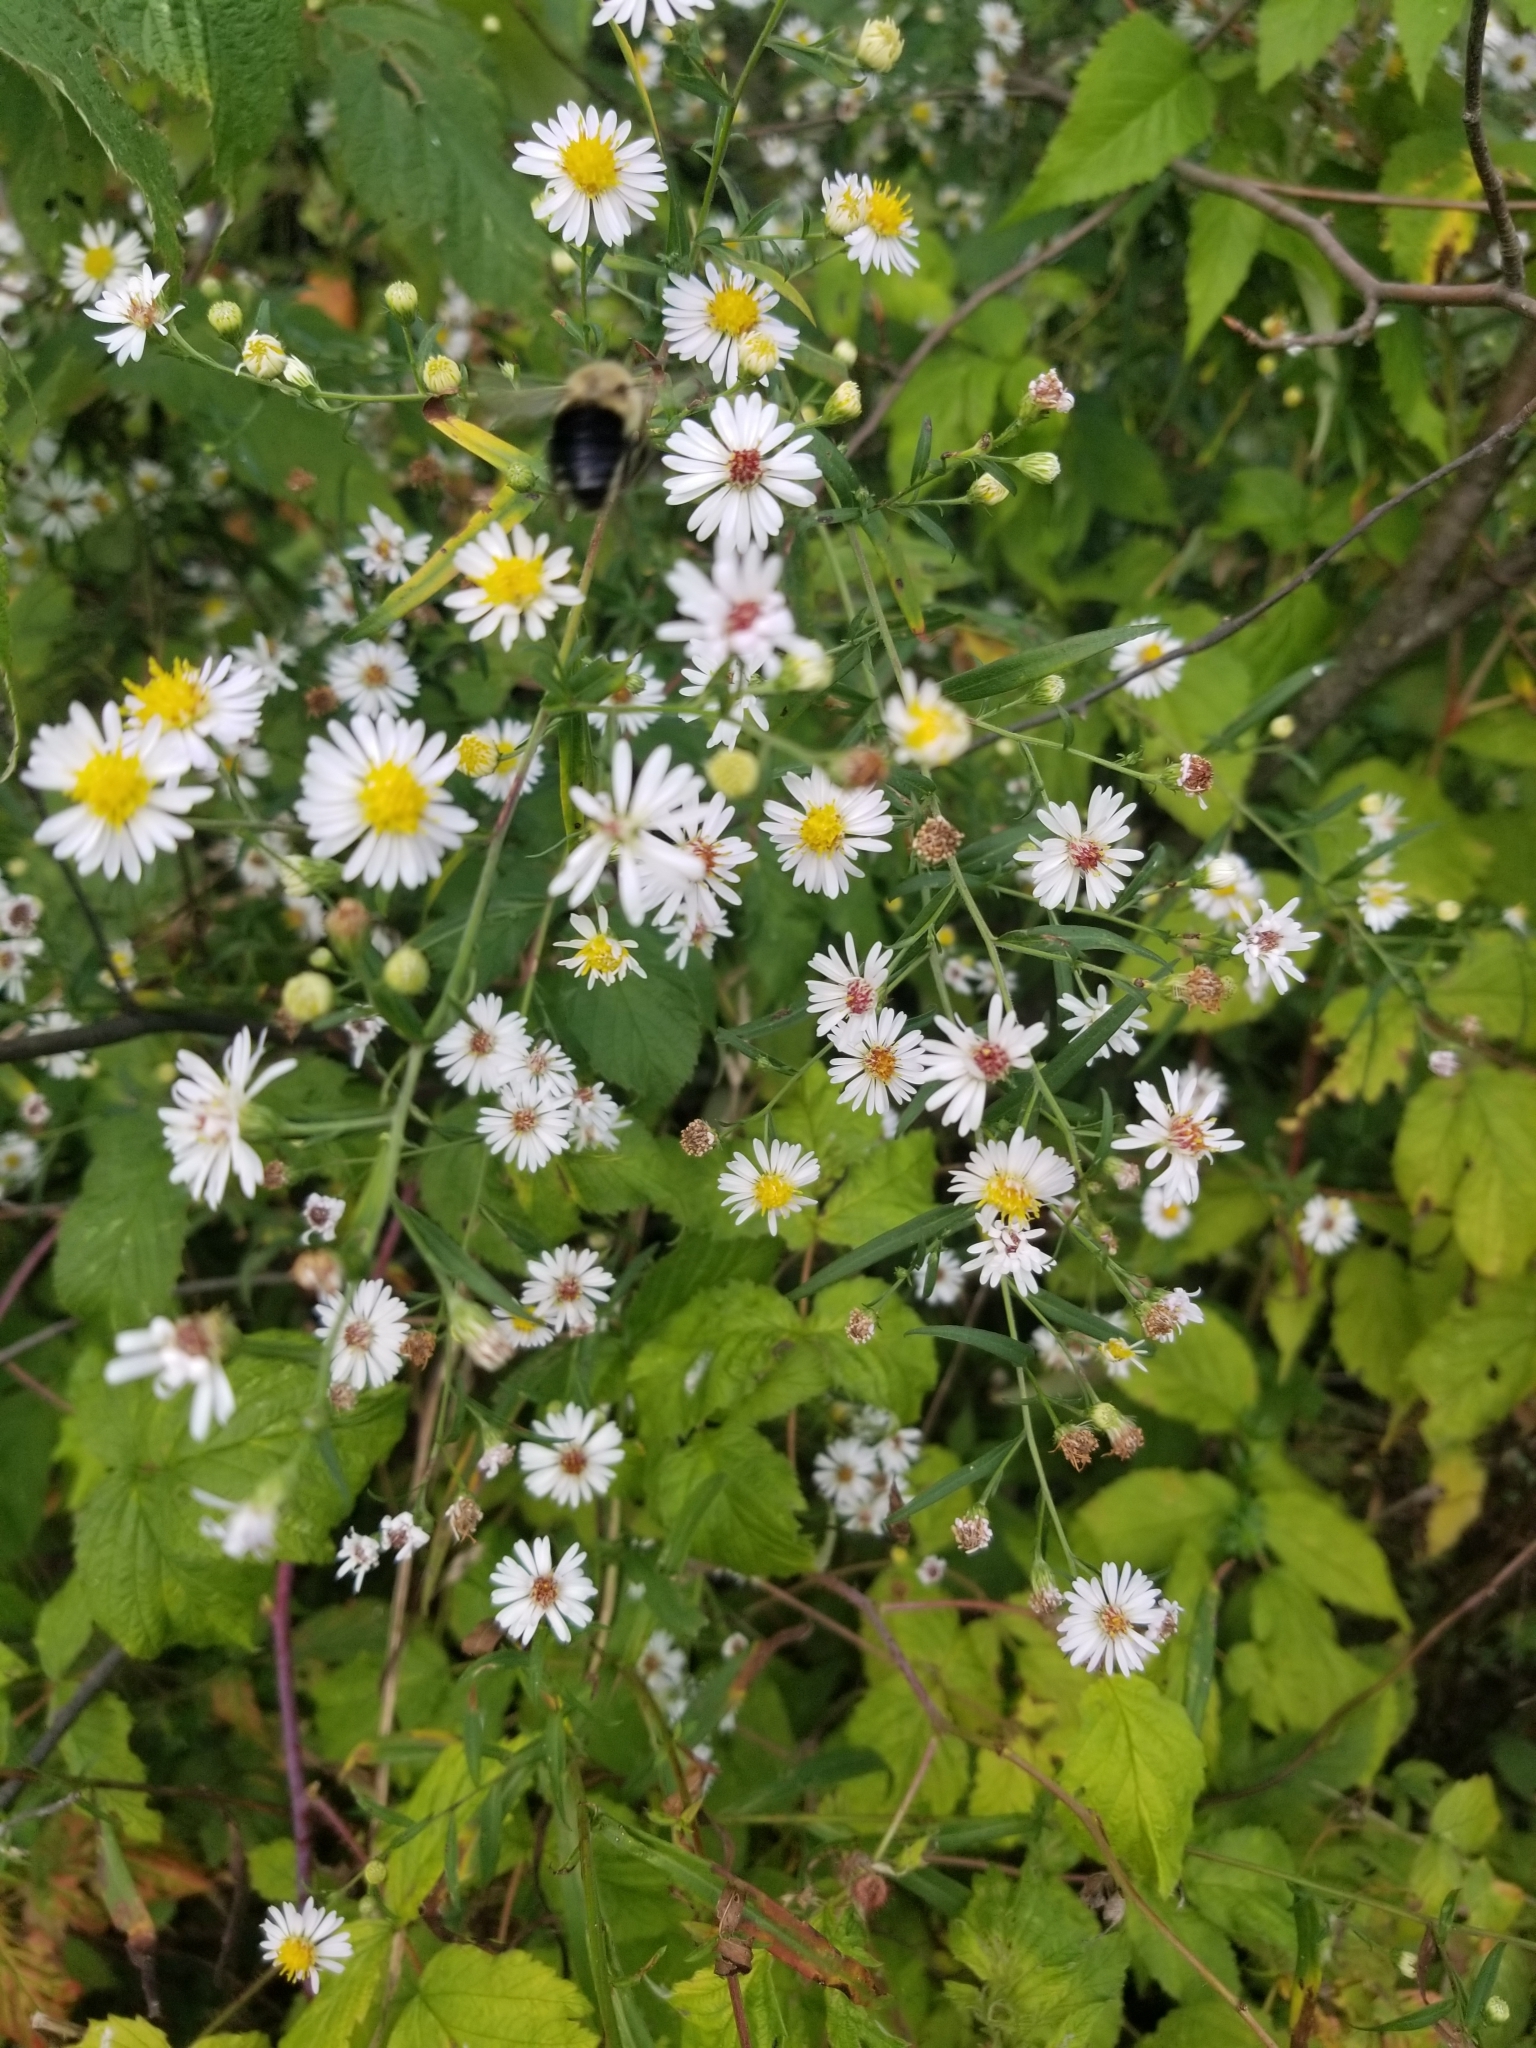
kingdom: Animalia
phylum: Arthropoda
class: Insecta
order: Hymenoptera
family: Apidae
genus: Bombus
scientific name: Bombus impatiens
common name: Common eastern bumble bee
